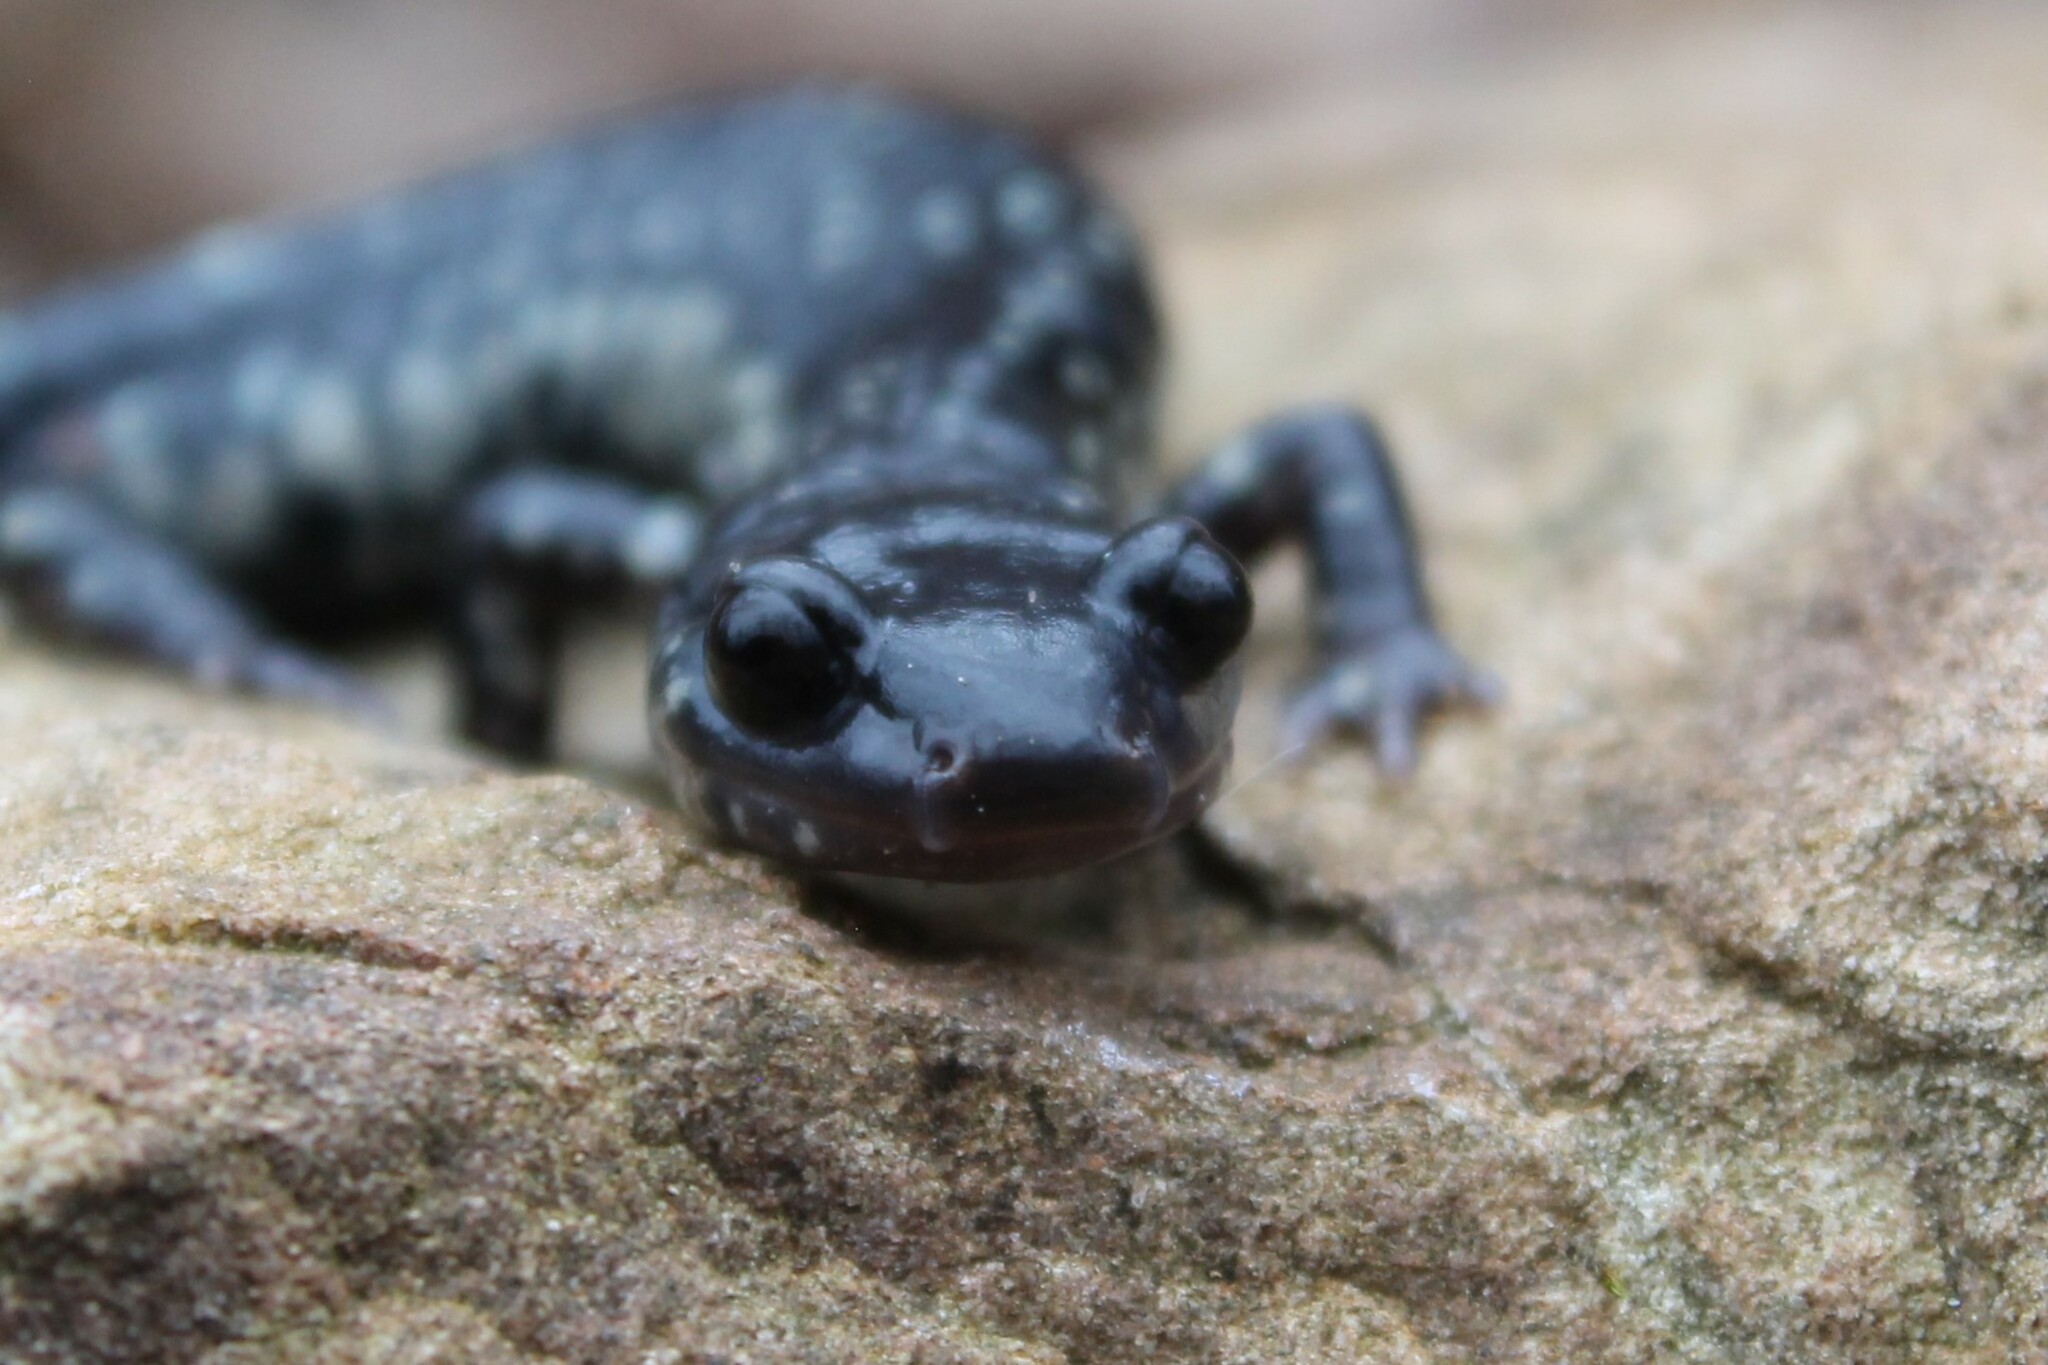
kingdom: Animalia
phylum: Chordata
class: Amphibia
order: Caudata
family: Plethodontidae
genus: Plethodon
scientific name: Plethodon glutinosus
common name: Northern slimy salamander
